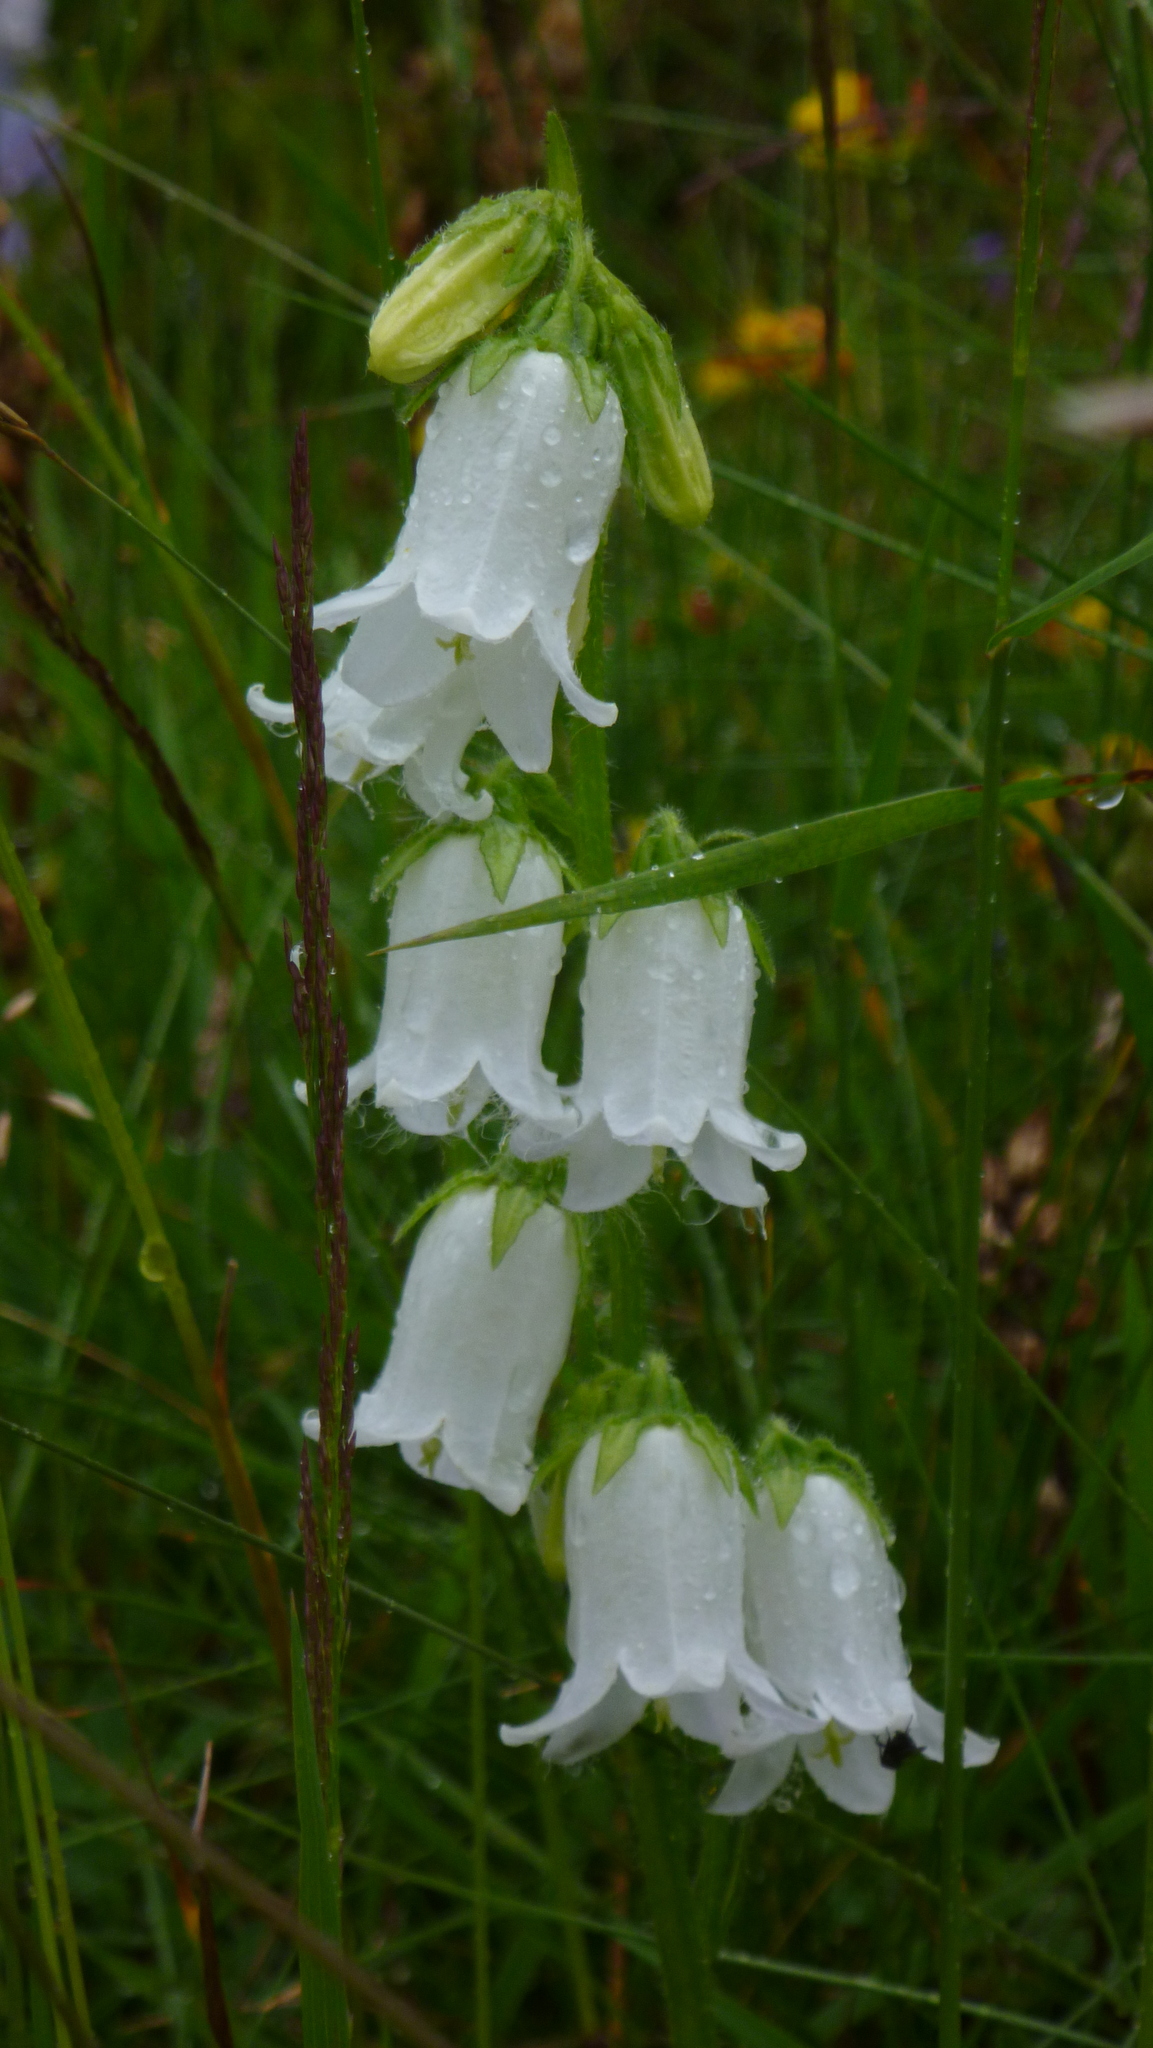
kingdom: Plantae
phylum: Tracheophyta
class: Magnoliopsida
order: Asterales
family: Campanulaceae
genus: Campanula
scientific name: Campanula barbata
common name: Bearded bellflower
